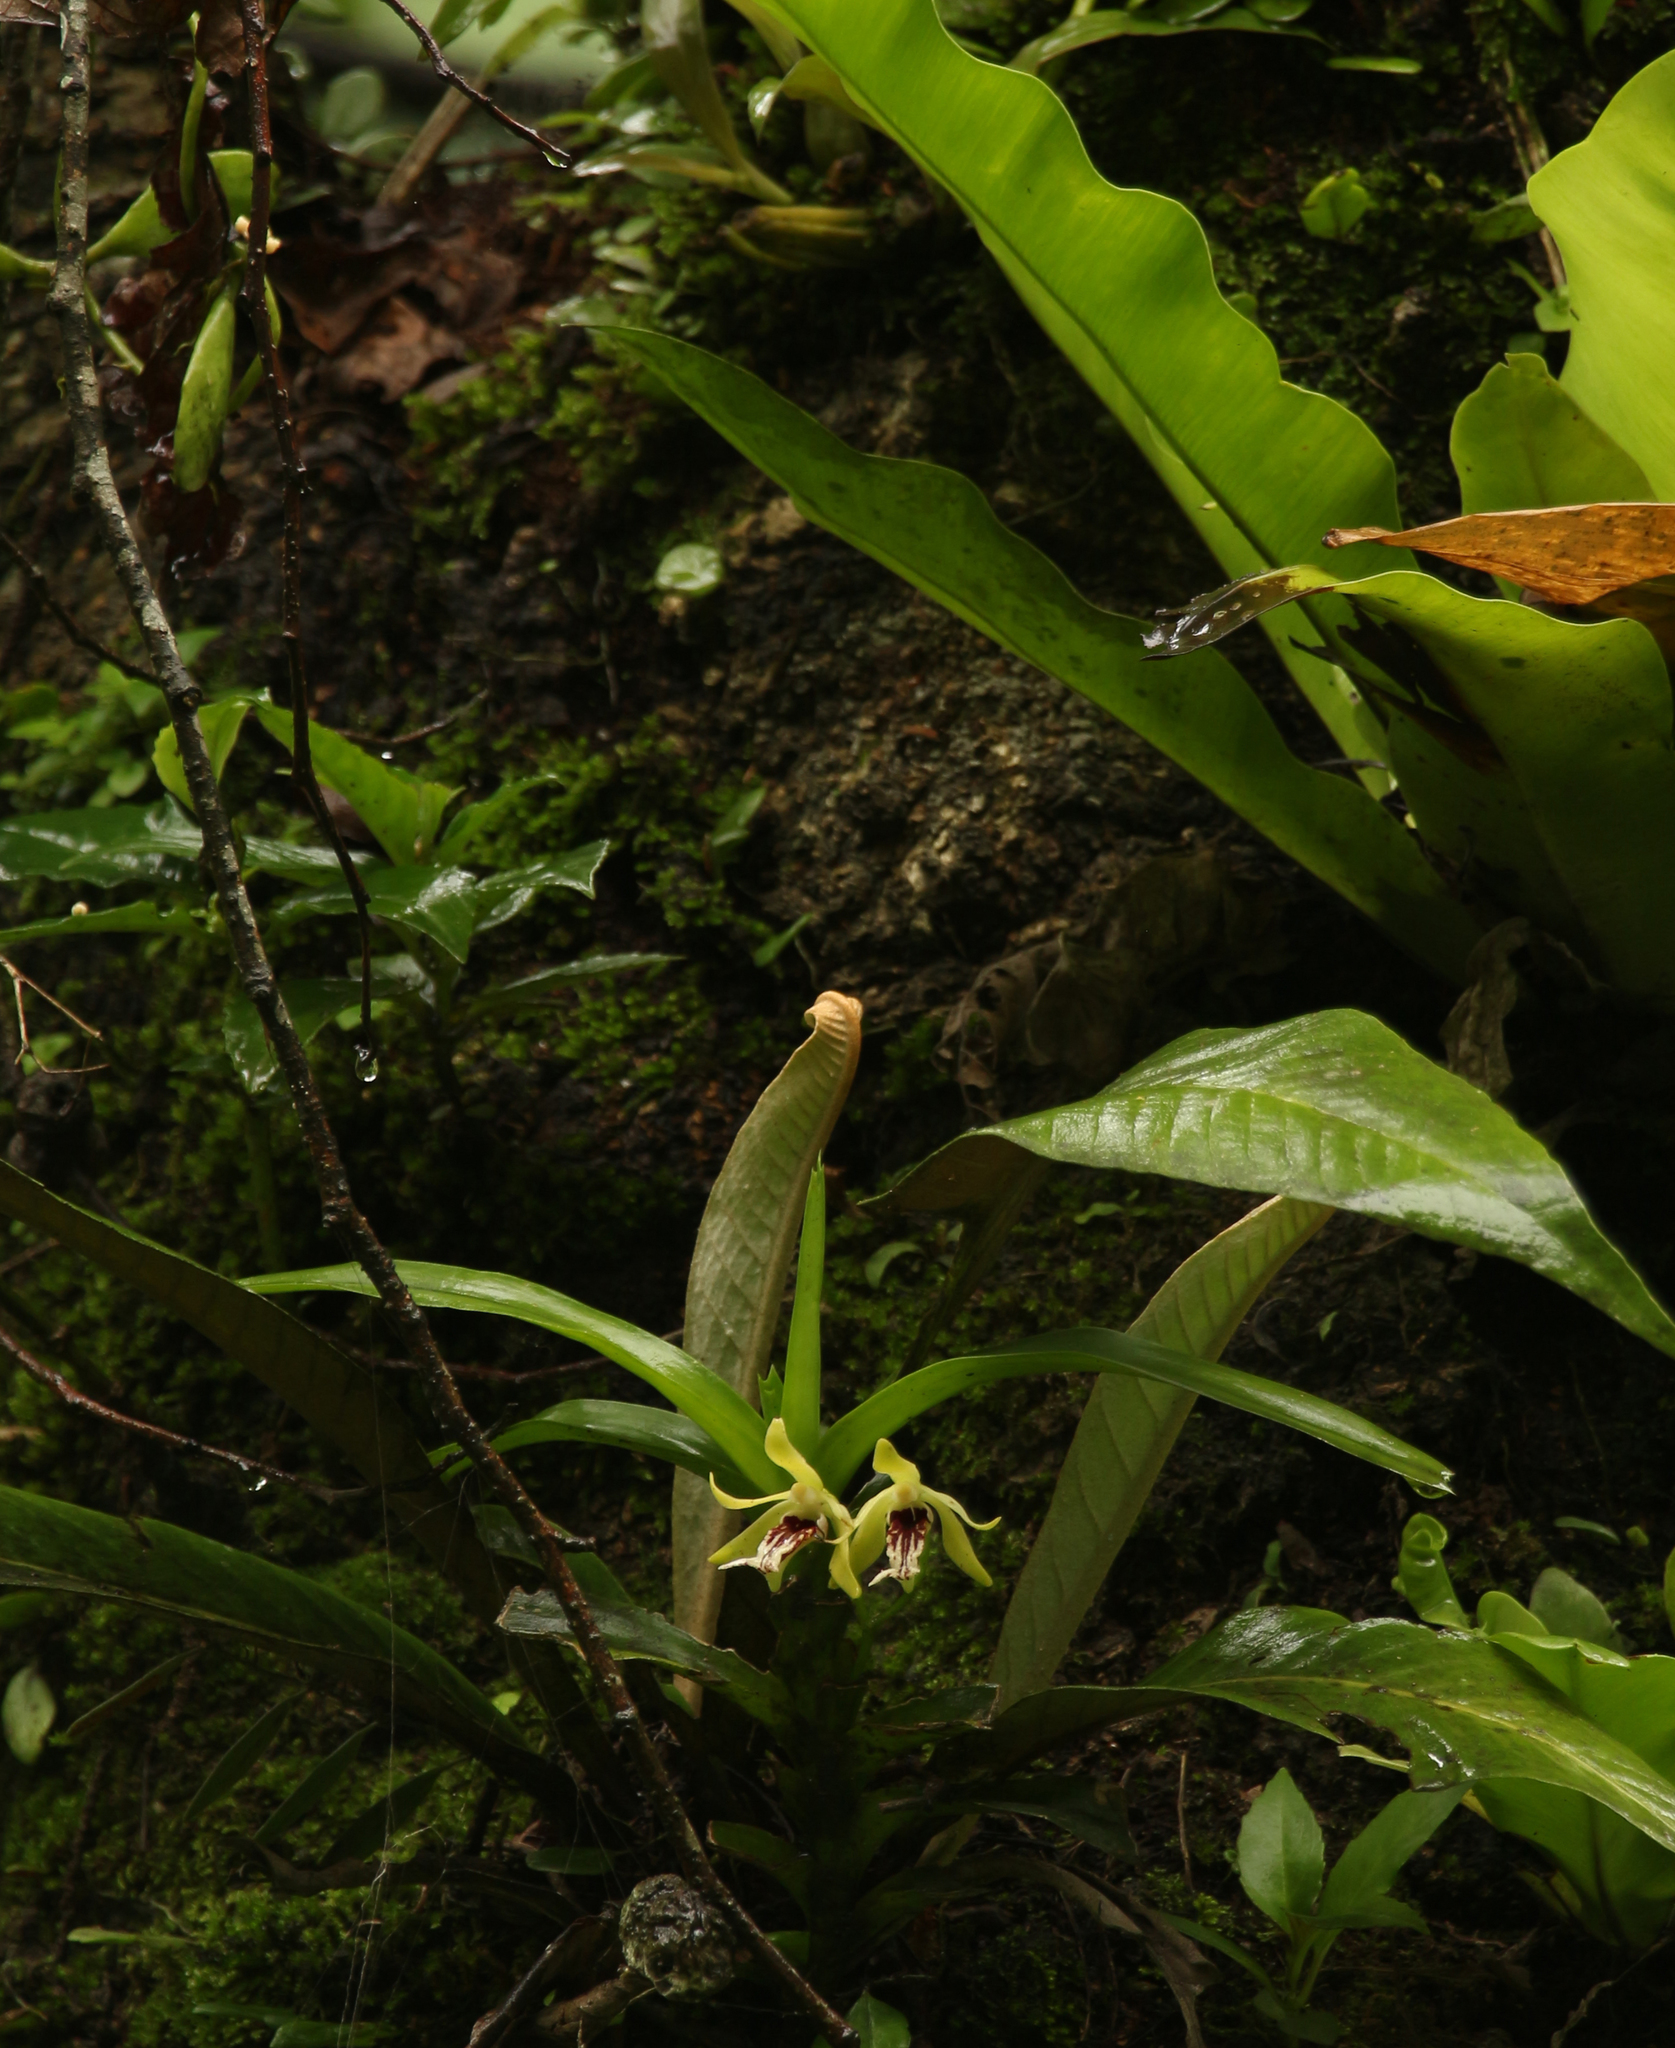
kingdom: Plantae
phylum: Tracheophyta
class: Liliopsida
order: Asparagales
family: Orchidaceae
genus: Vanda
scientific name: Vanda cristata
